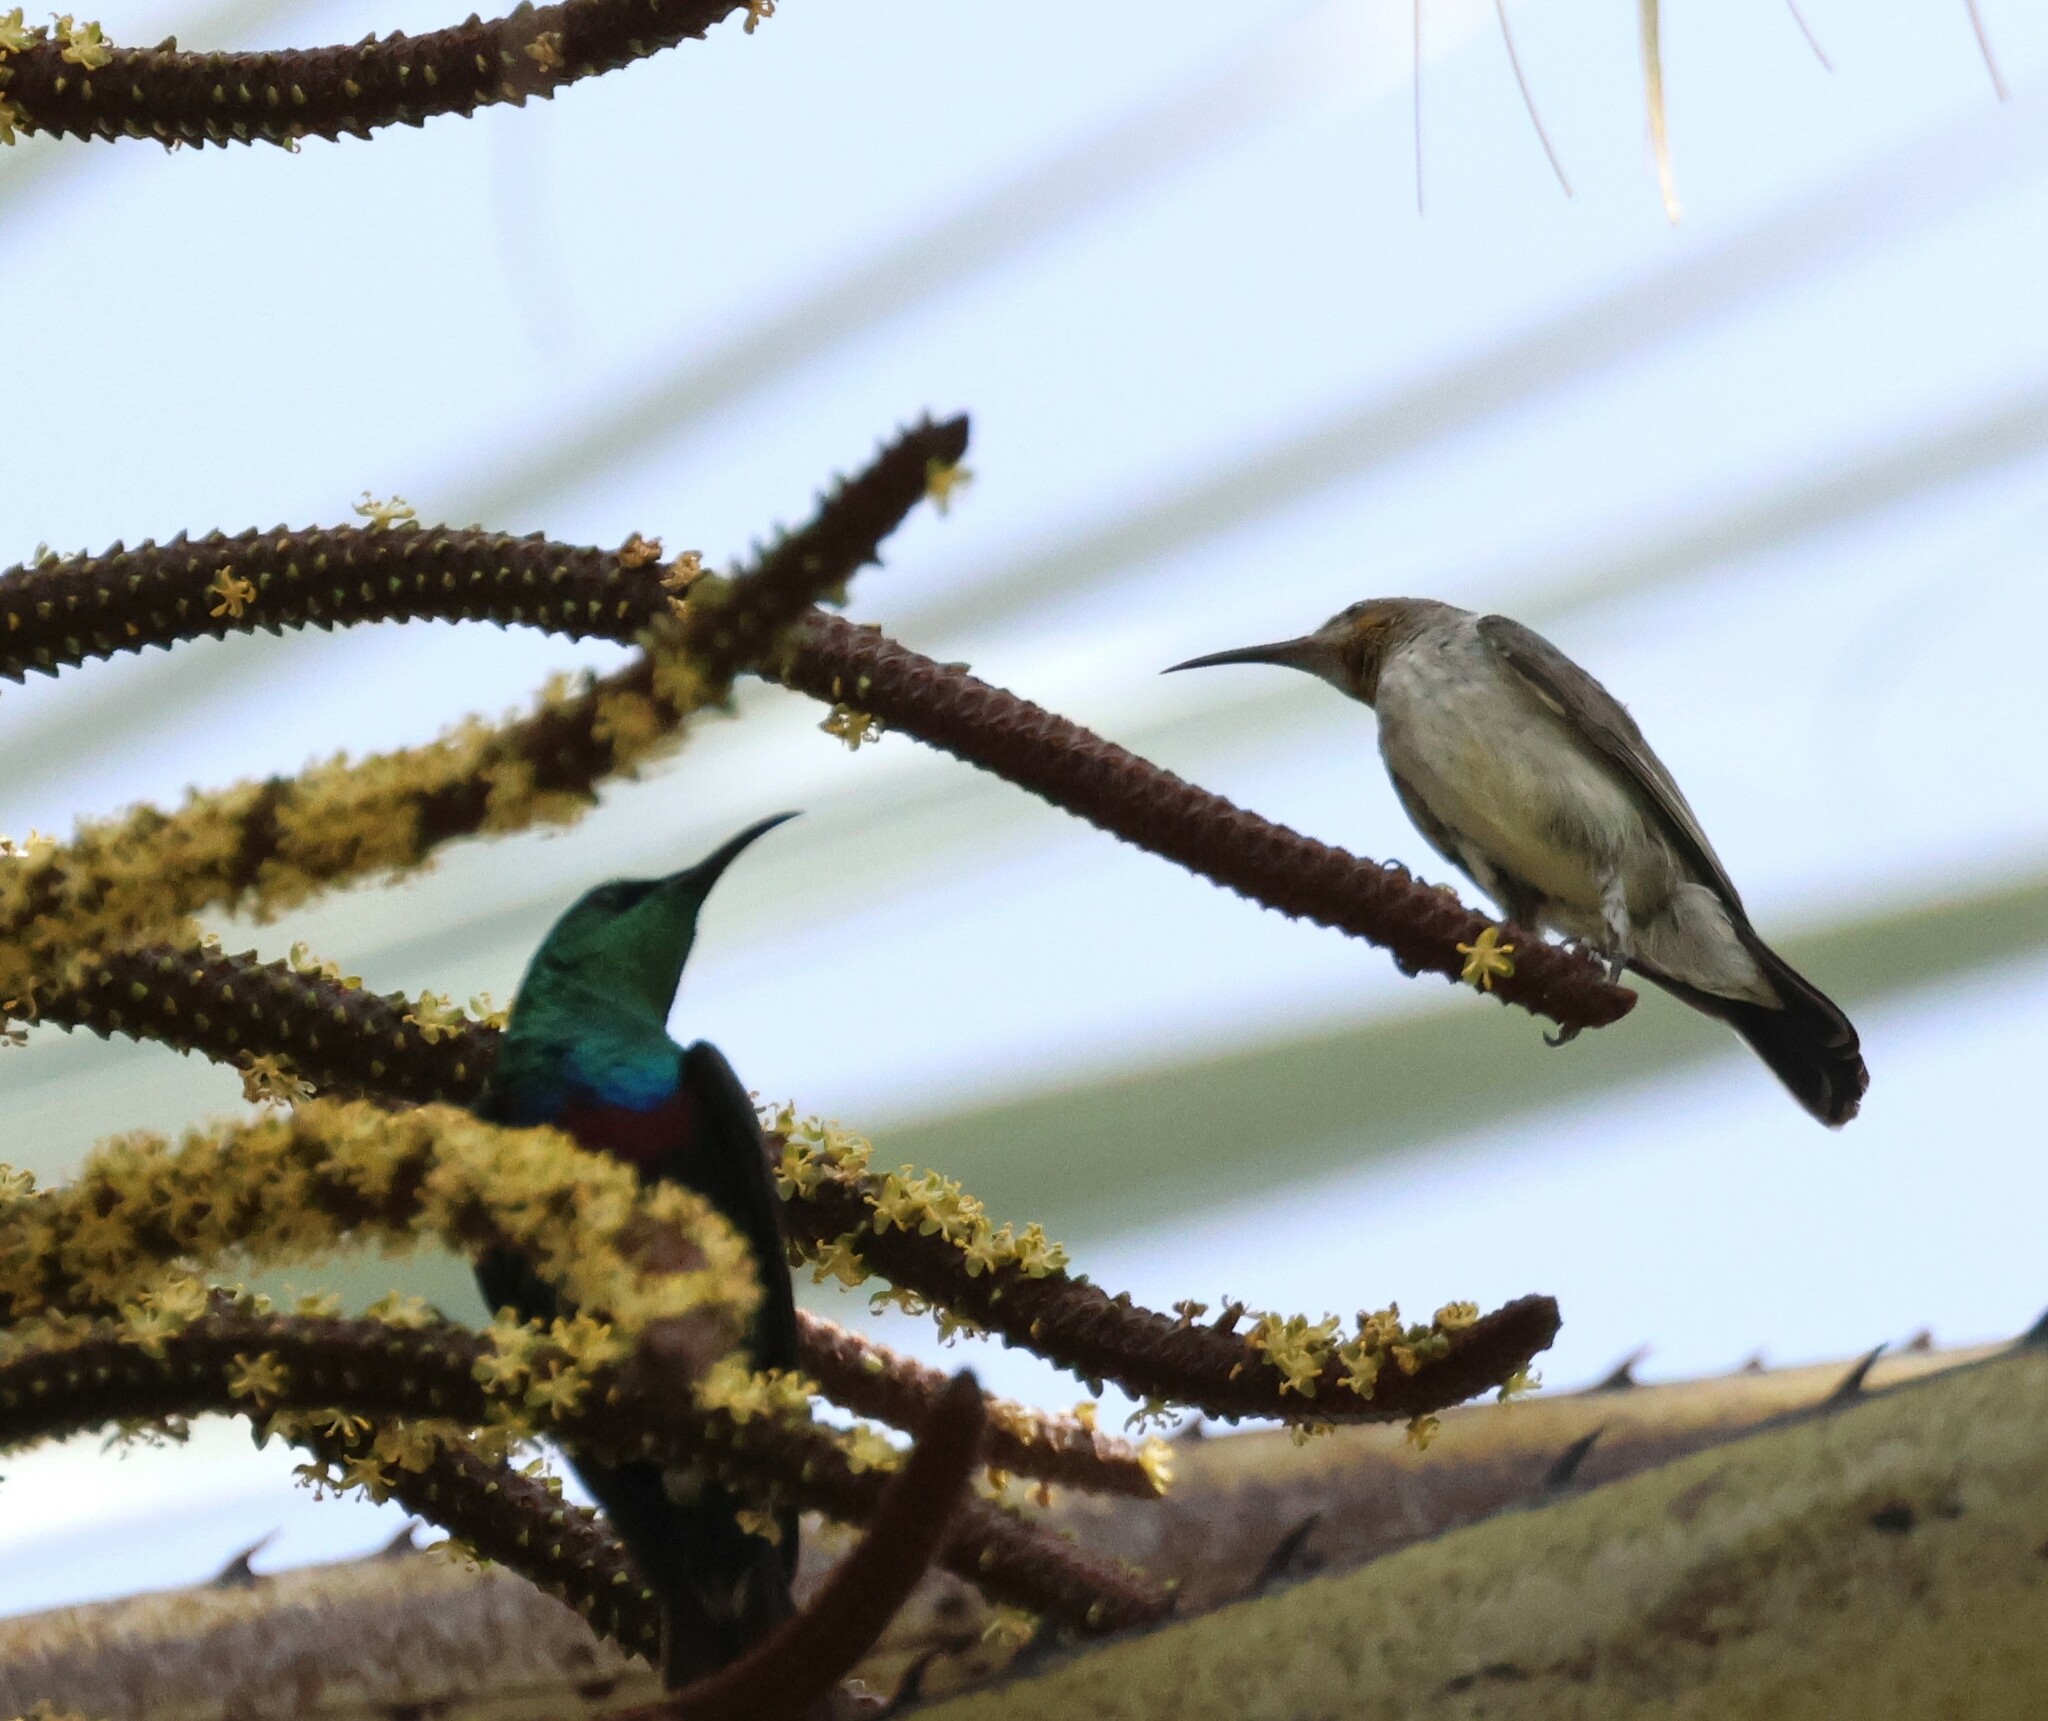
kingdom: Animalia
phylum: Chordata
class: Aves
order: Passeriformes
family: Nectariniidae
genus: Cinnyris
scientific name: Cinnyris mariquensis
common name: Marico sunbird
